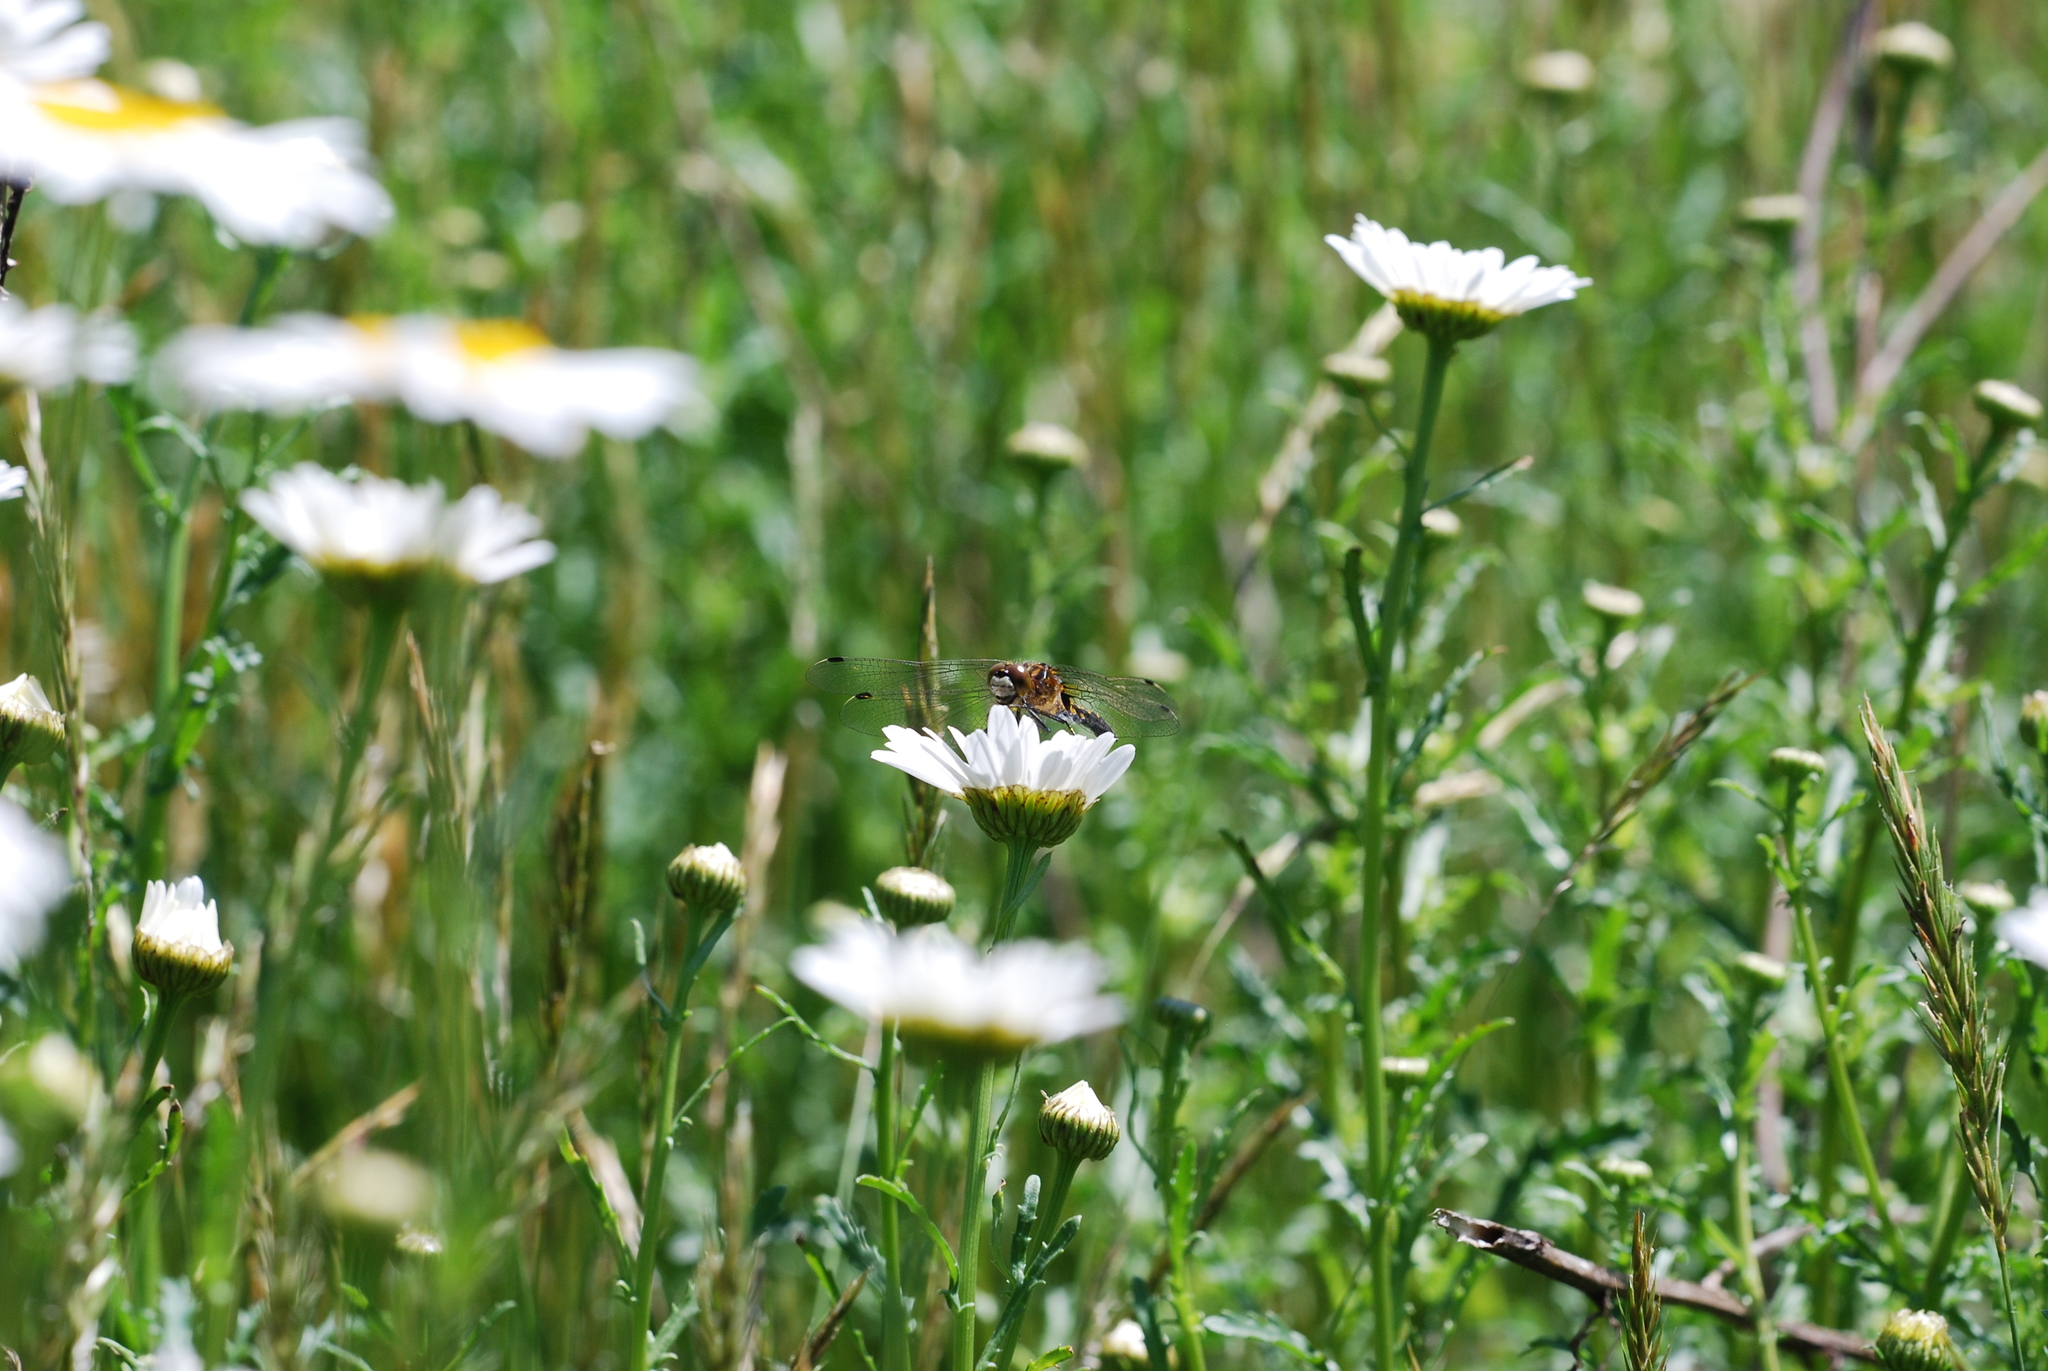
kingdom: Animalia
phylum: Arthropoda
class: Insecta
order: Odonata
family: Libellulidae
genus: Leucorrhinia
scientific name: Leucorrhinia intacta
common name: Dot-tailed whiteface
